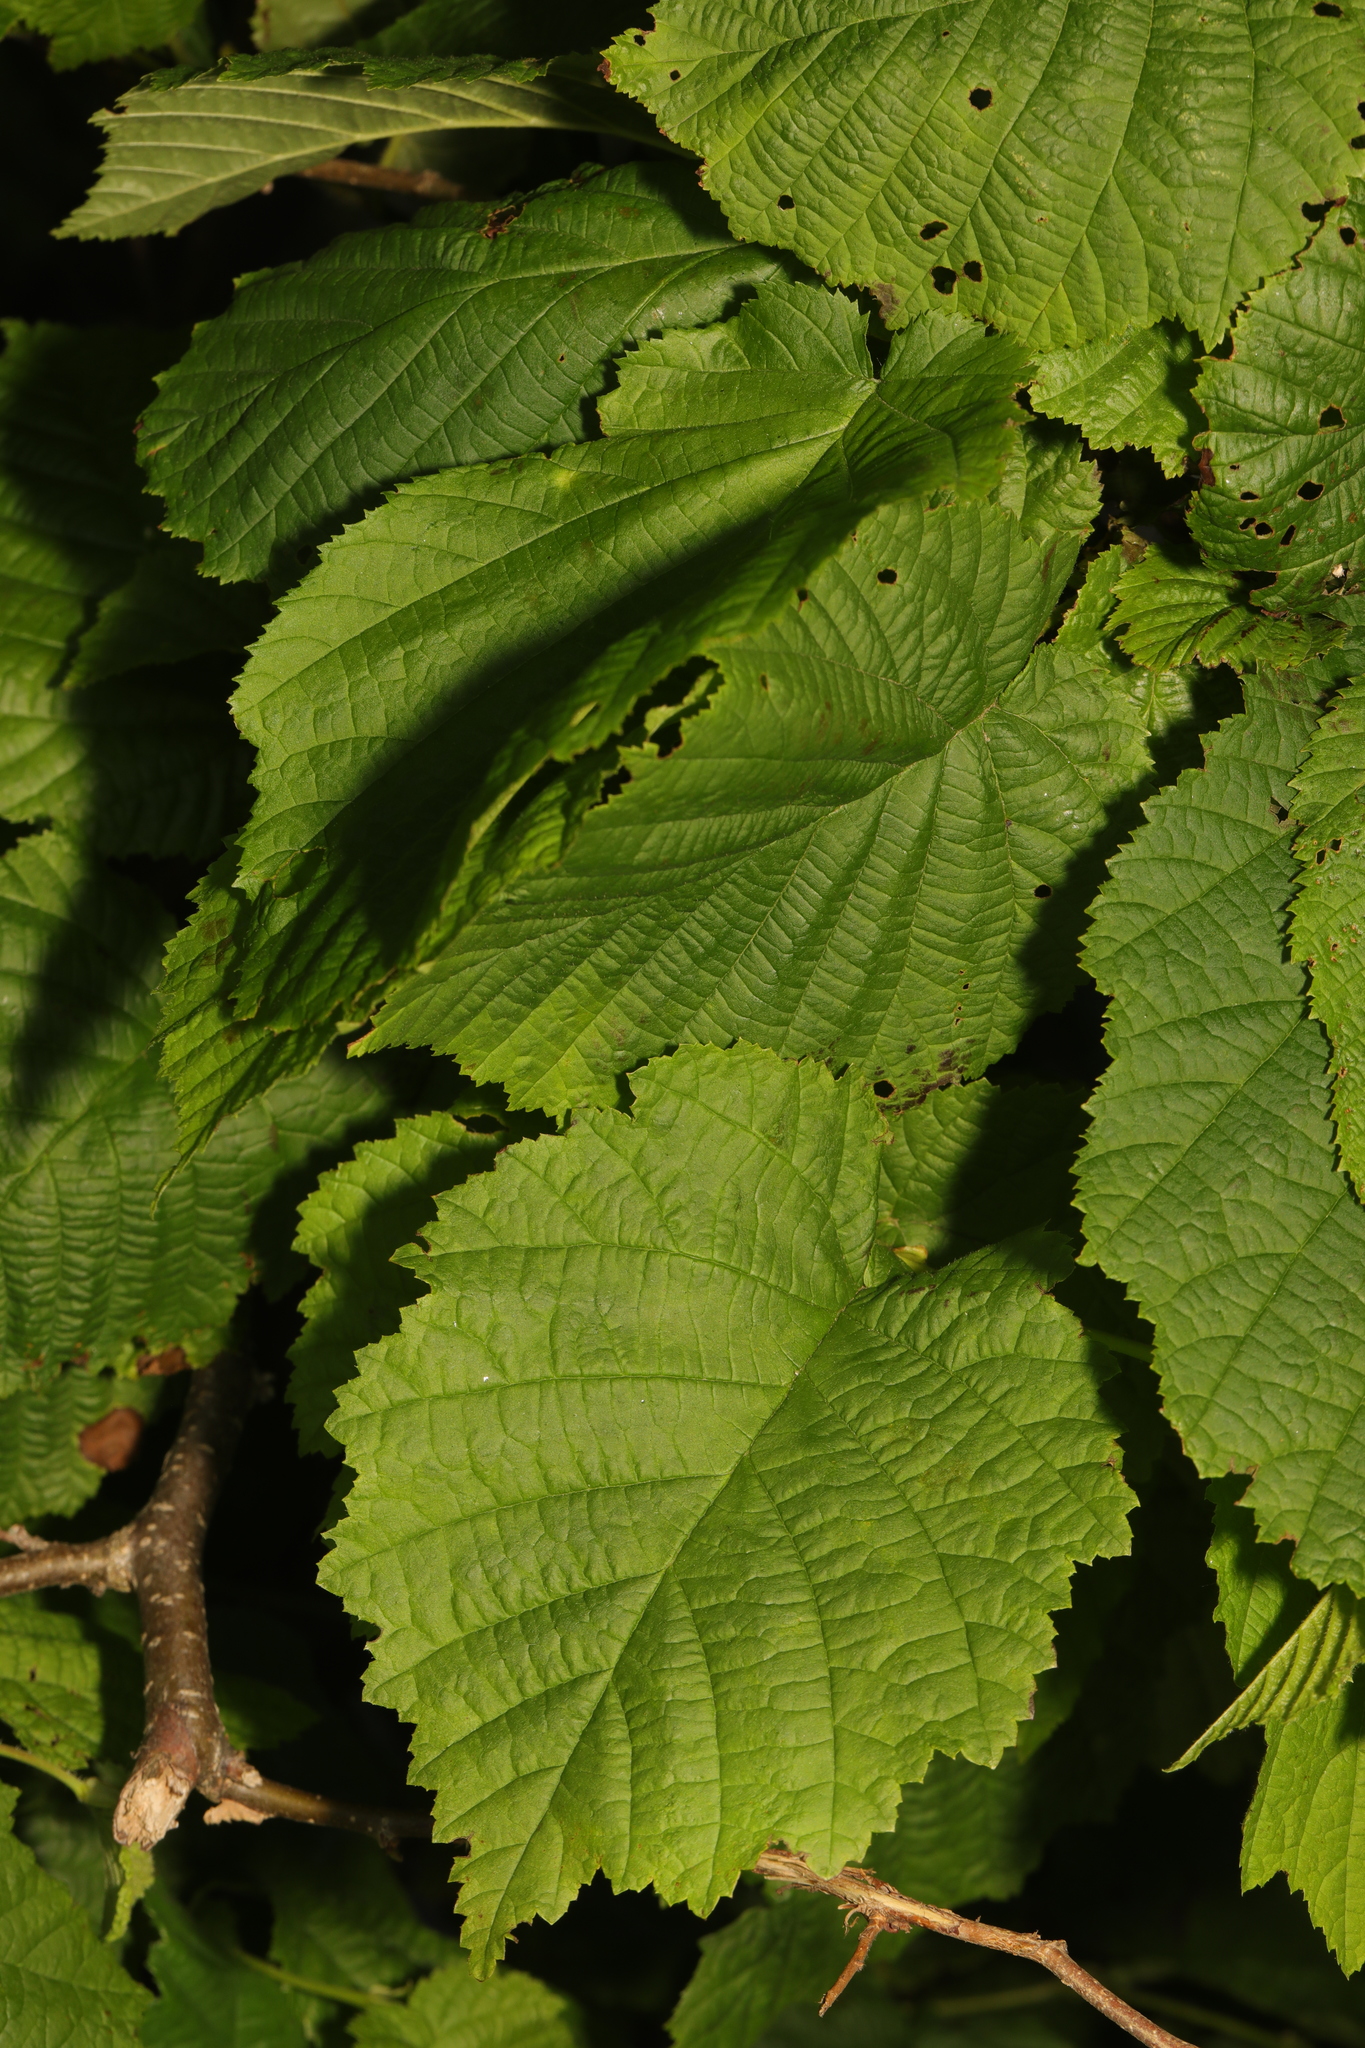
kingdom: Plantae
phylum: Tracheophyta
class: Magnoliopsida
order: Fagales
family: Betulaceae
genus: Corylus
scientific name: Corylus avellana
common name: European hazel
